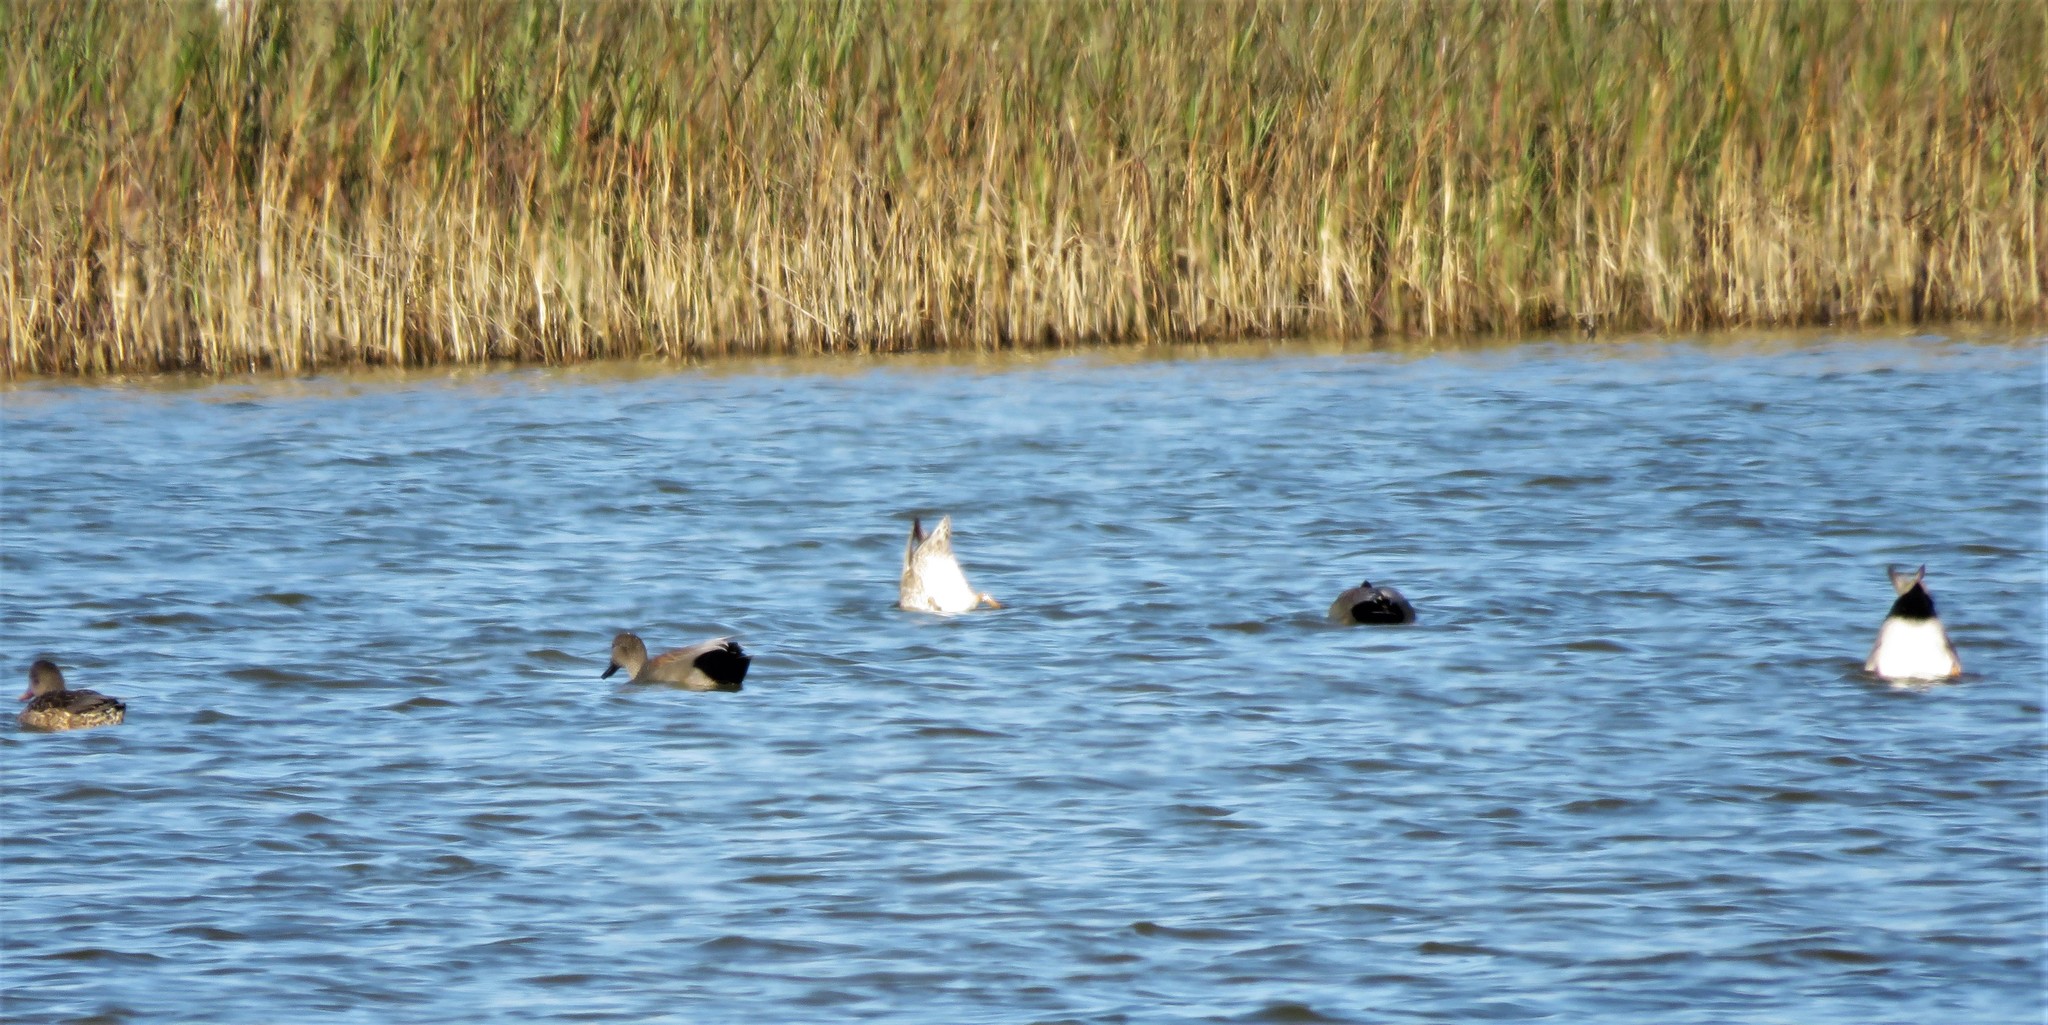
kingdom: Animalia
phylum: Chordata
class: Aves
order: Anseriformes
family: Anatidae
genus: Mareca
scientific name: Mareca strepera
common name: Gadwall
